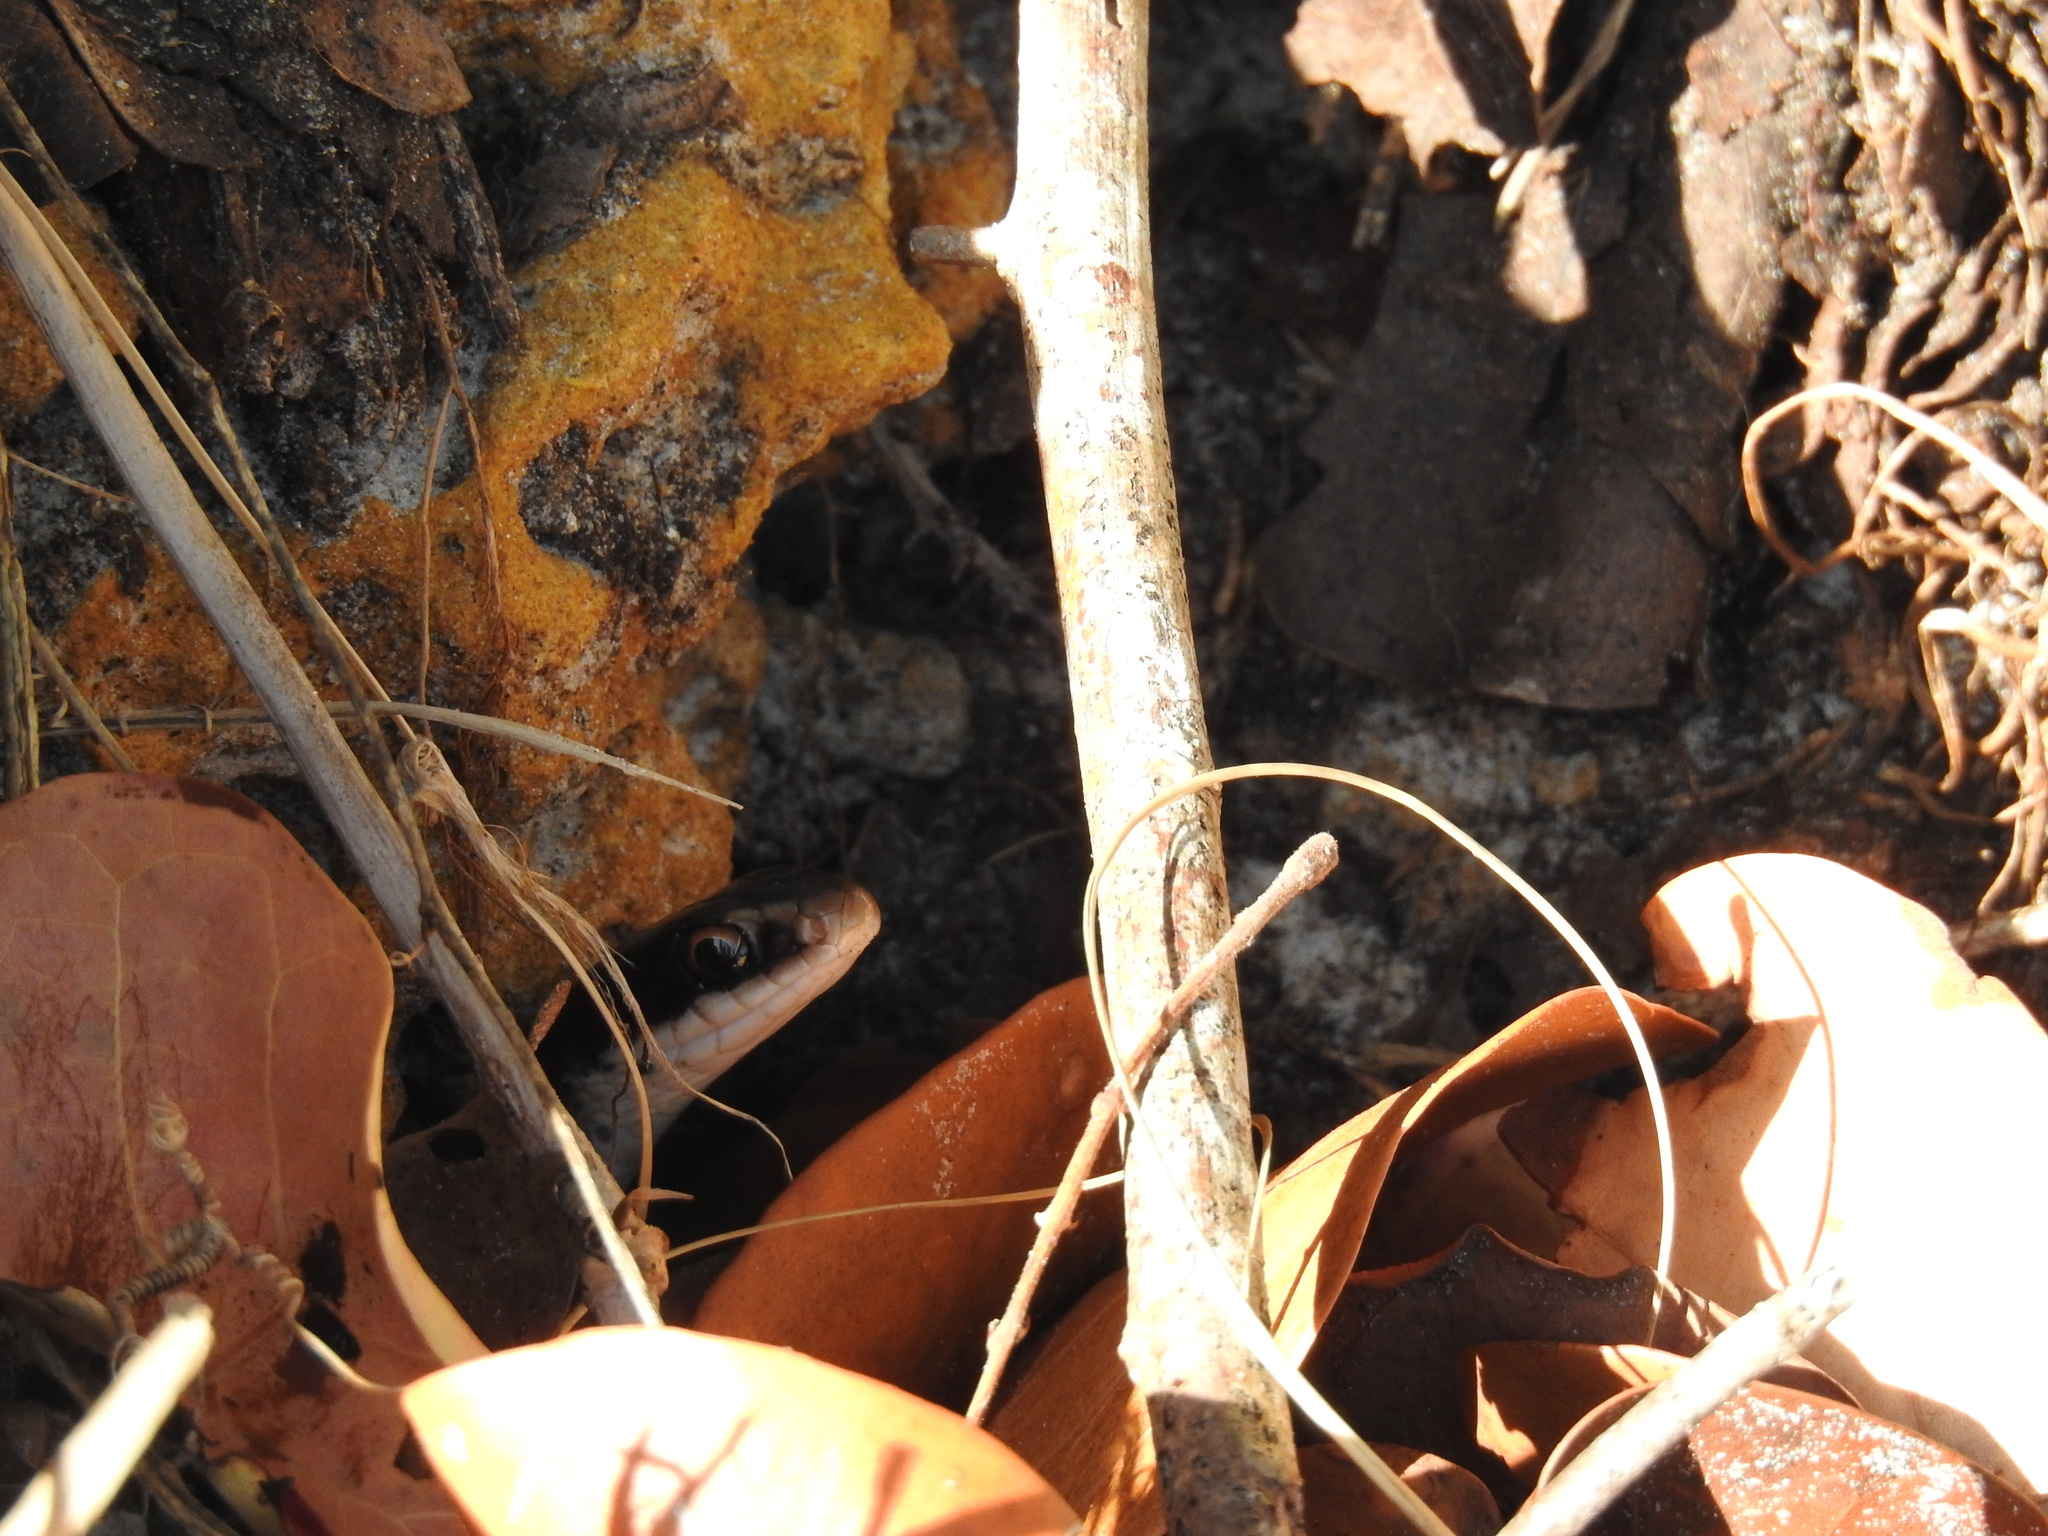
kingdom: Animalia
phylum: Chordata
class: Squamata
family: Colubridae
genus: Coluber
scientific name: Coluber constrictor
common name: Eastern racer
